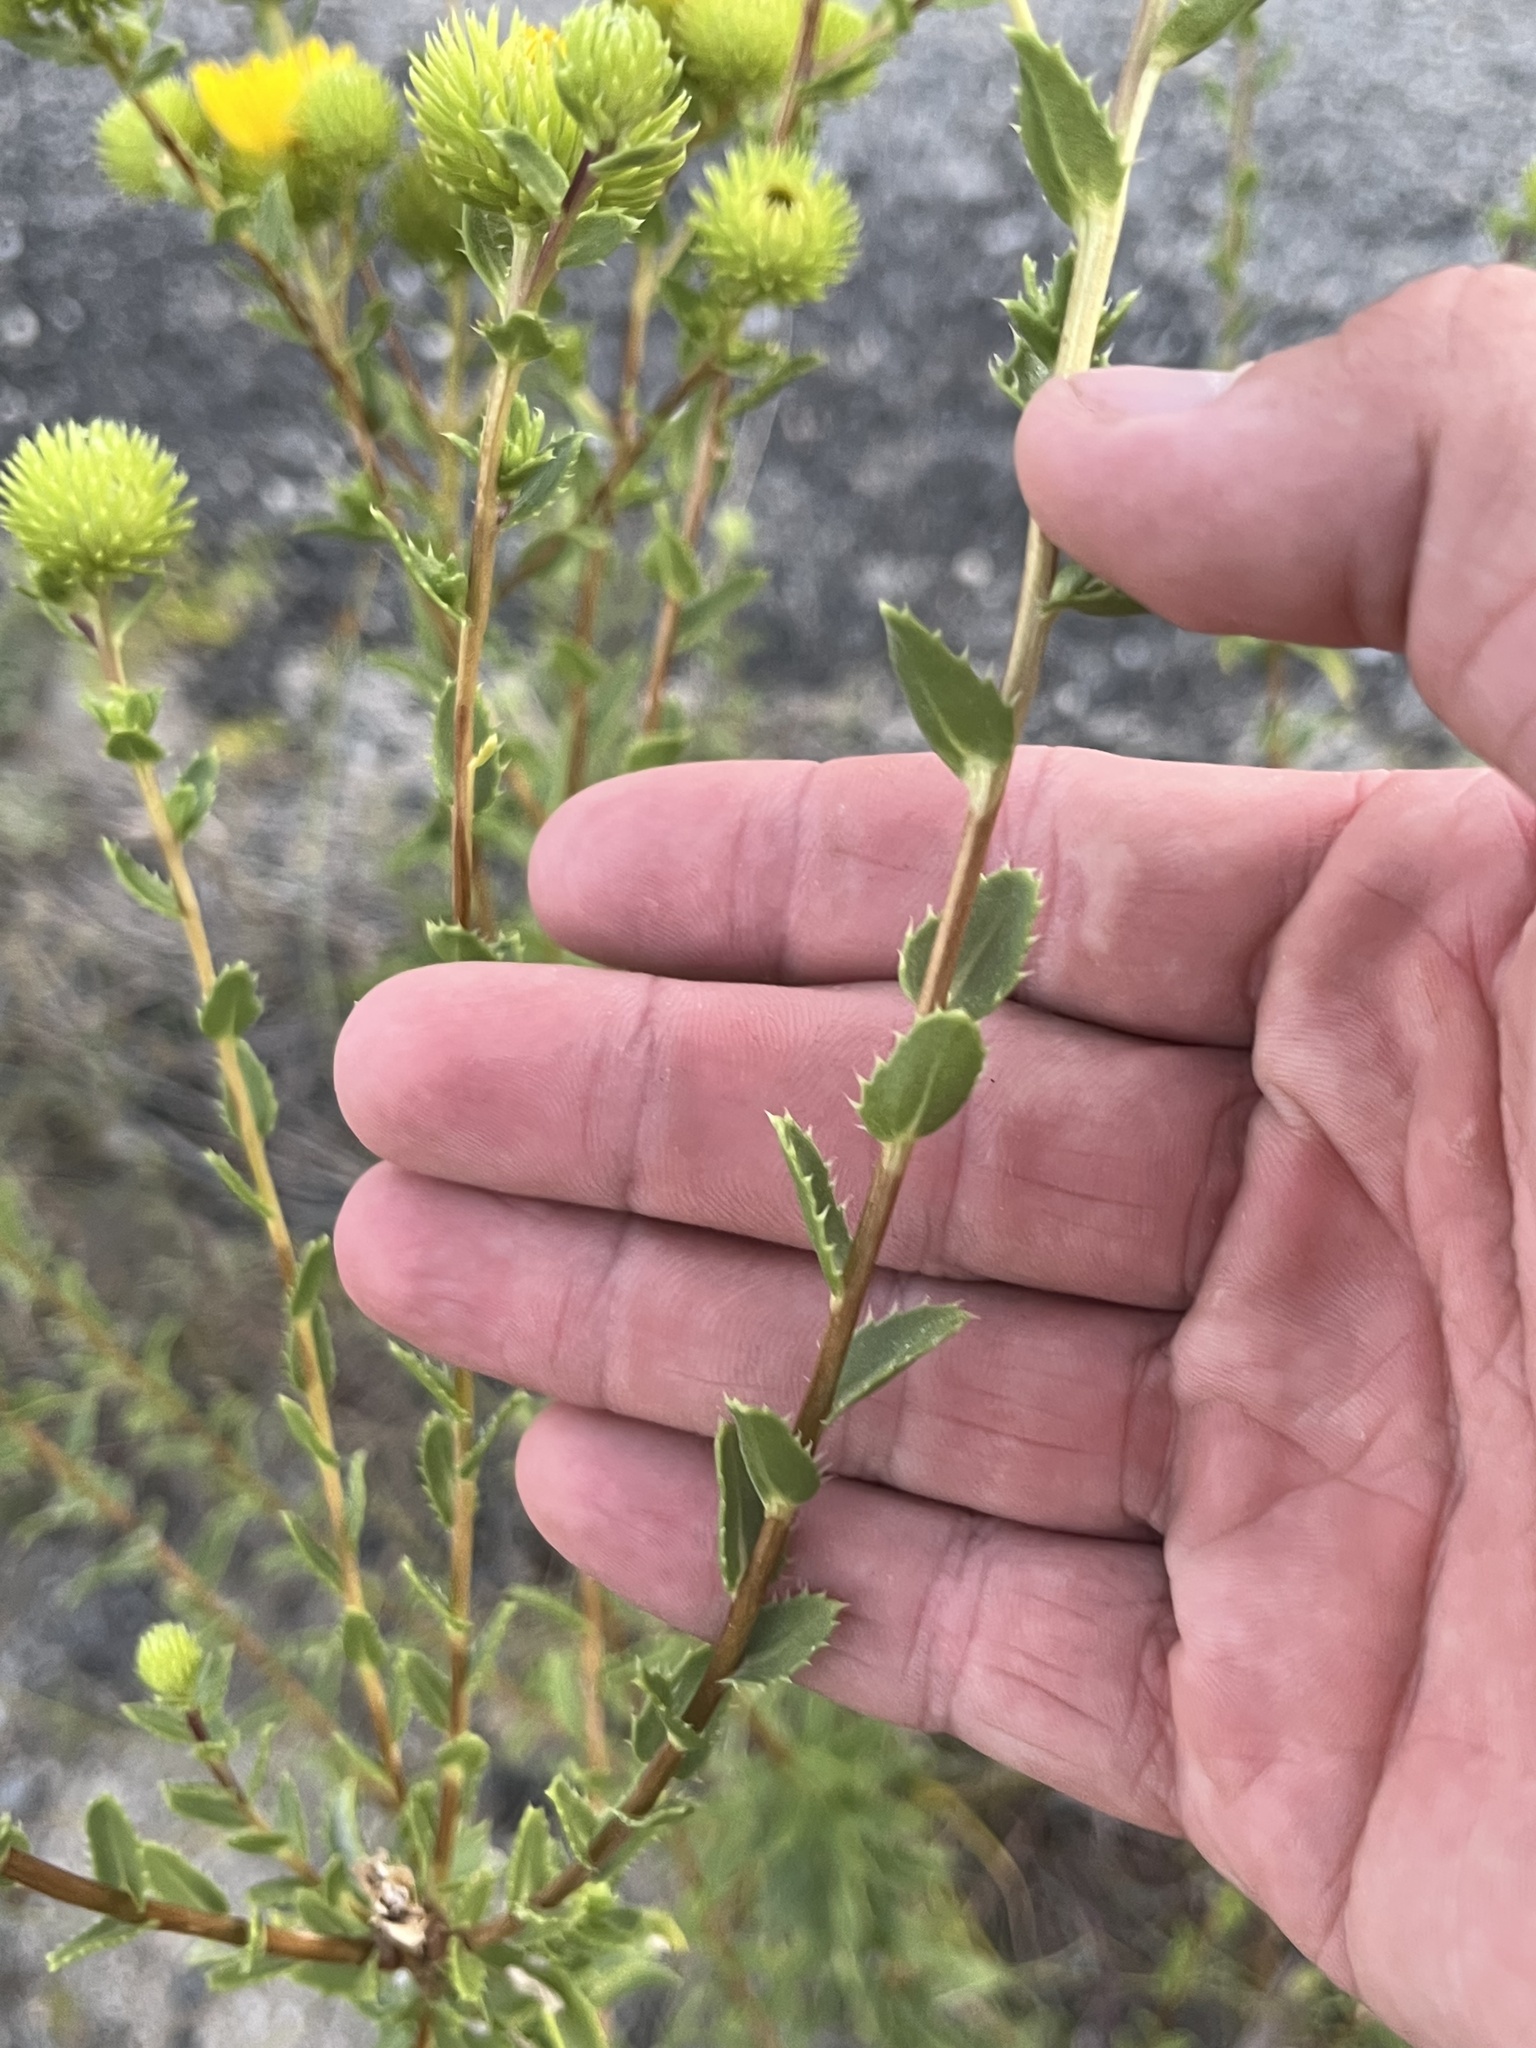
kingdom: Plantae
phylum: Tracheophyta
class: Magnoliopsida
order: Asterales
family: Asteraceae
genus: Grindelia
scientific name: Grindelia lanceolata
